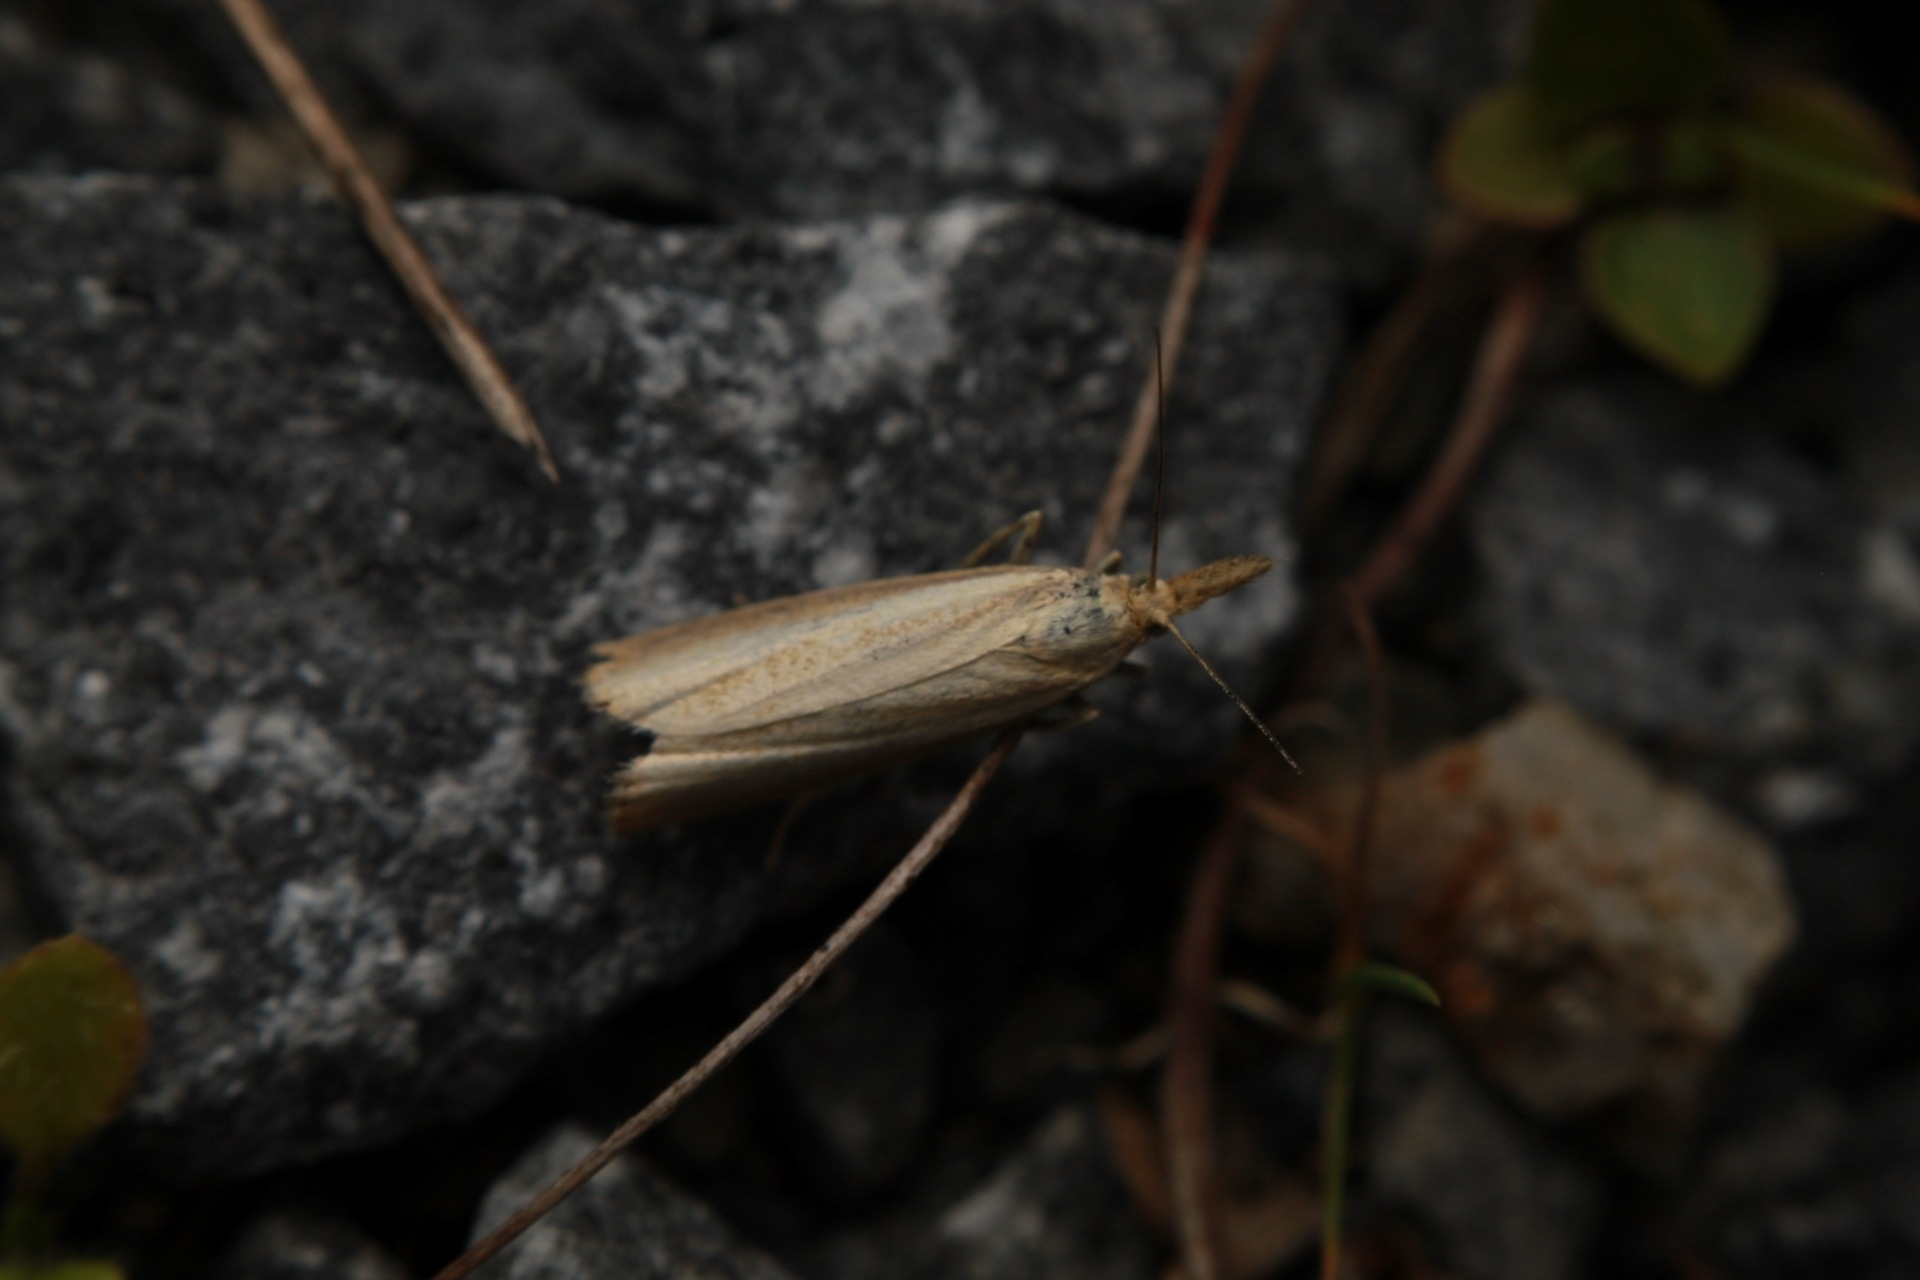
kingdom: Animalia
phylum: Arthropoda
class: Insecta
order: Lepidoptera
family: Crambidae
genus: Agriphila
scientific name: Agriphila straminella
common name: Straw grass-veneer
